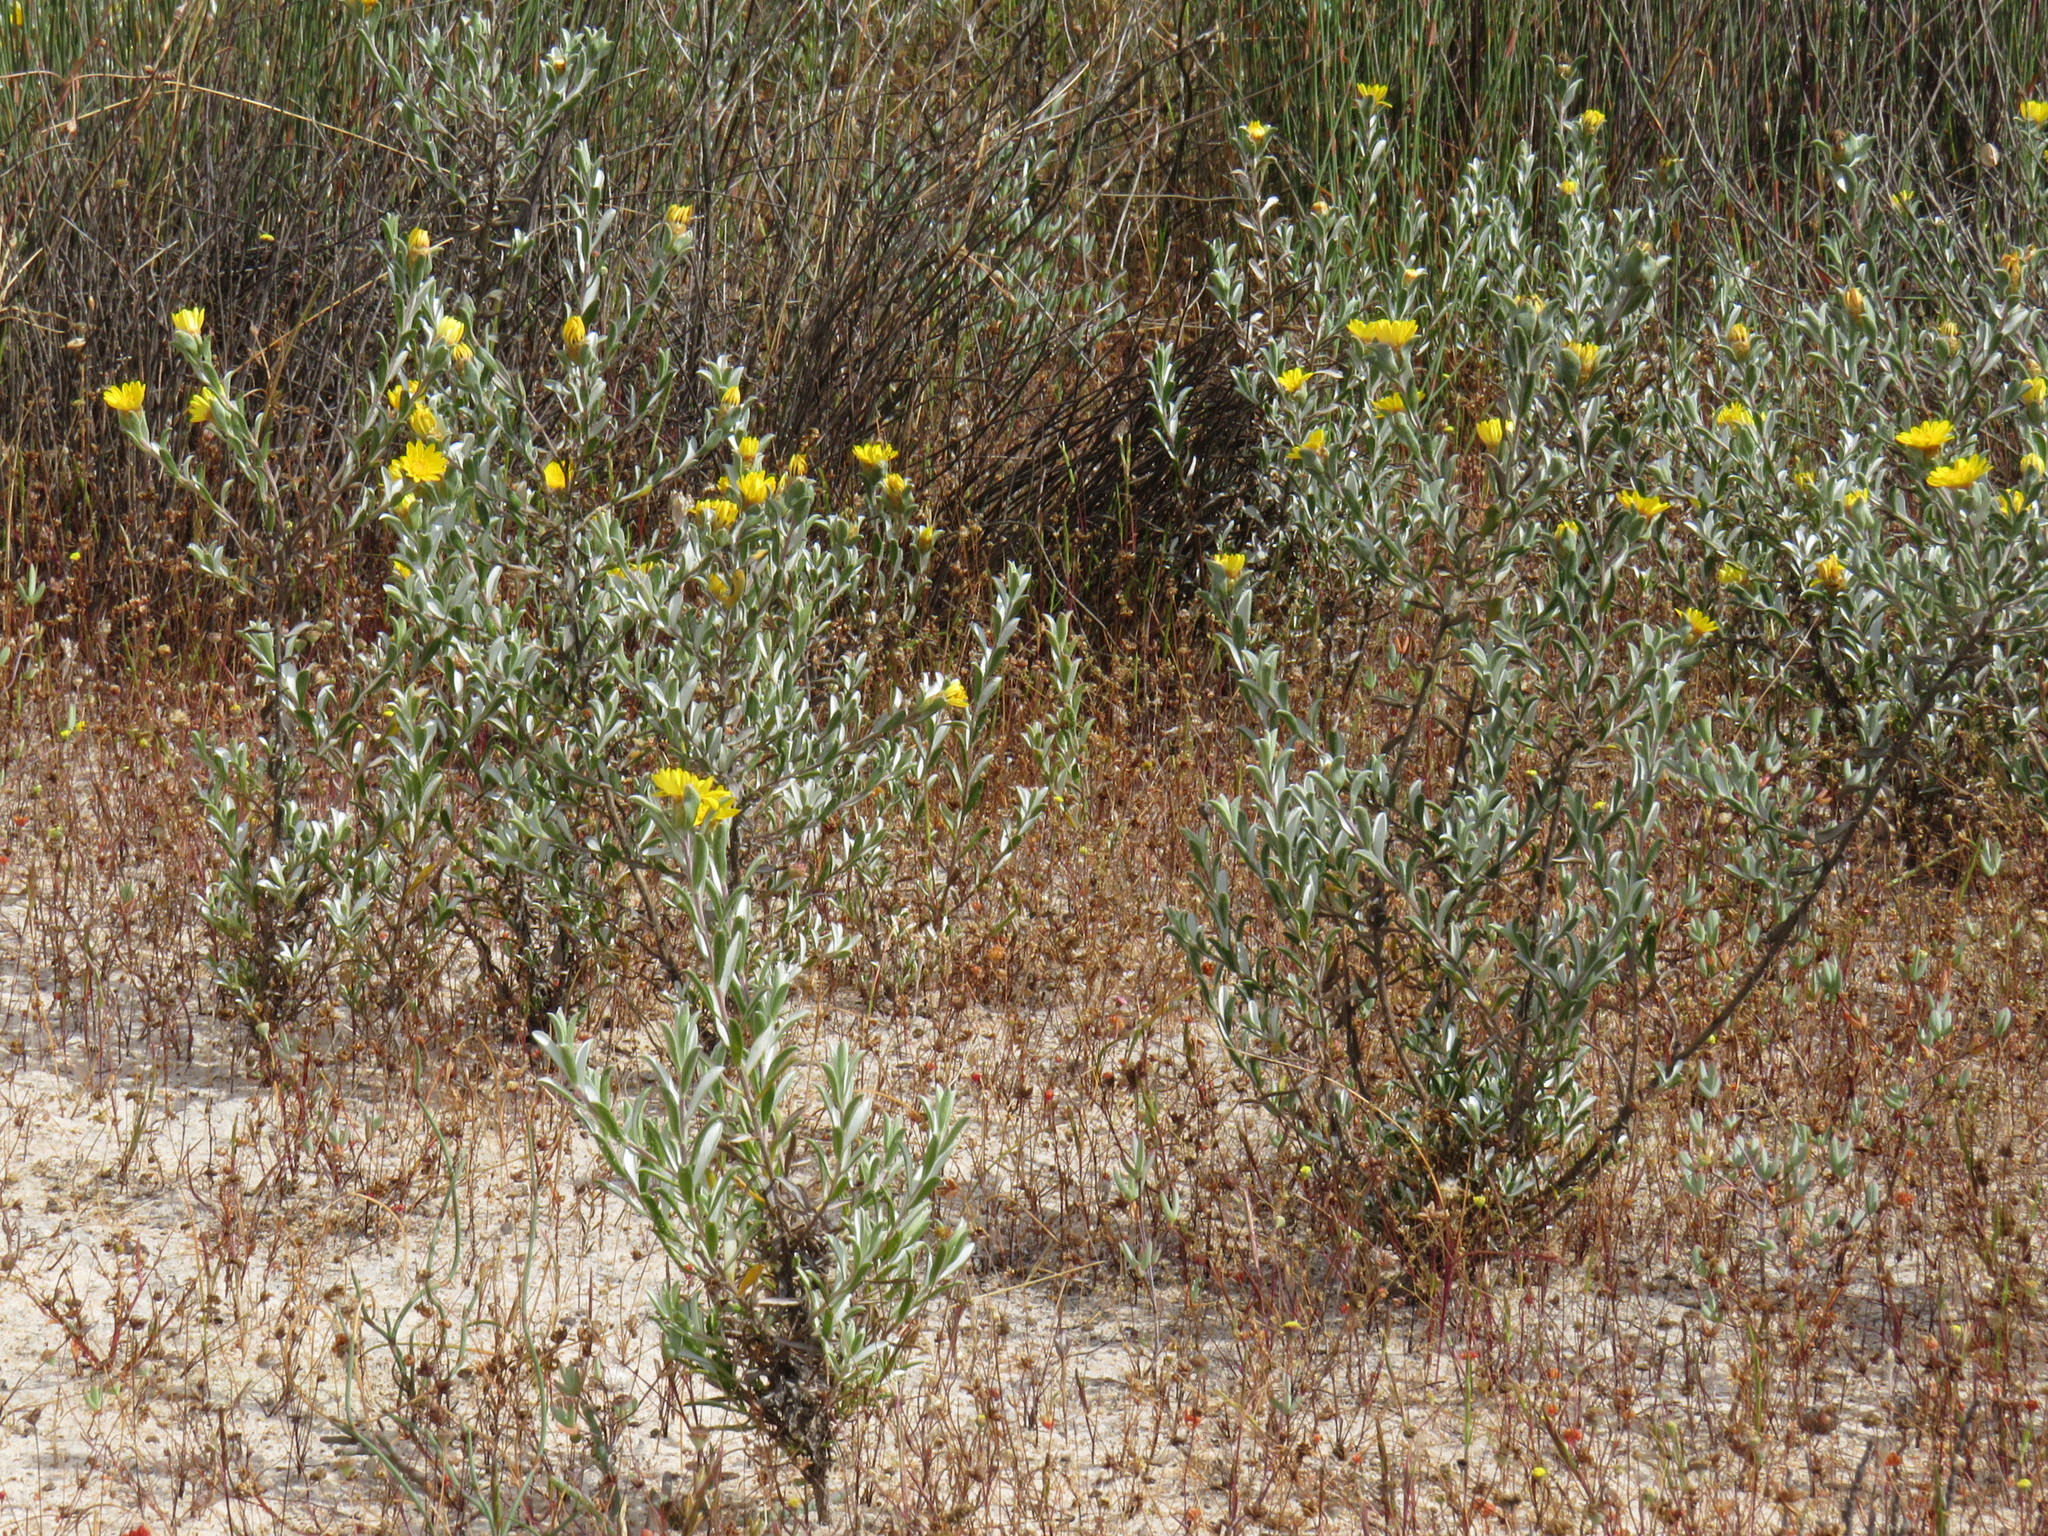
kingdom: Plantae
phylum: Tracheophyta
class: Magnoliopsida
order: Asterales
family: Asteraceae
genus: Oedera
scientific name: Oedera rotundifolia
